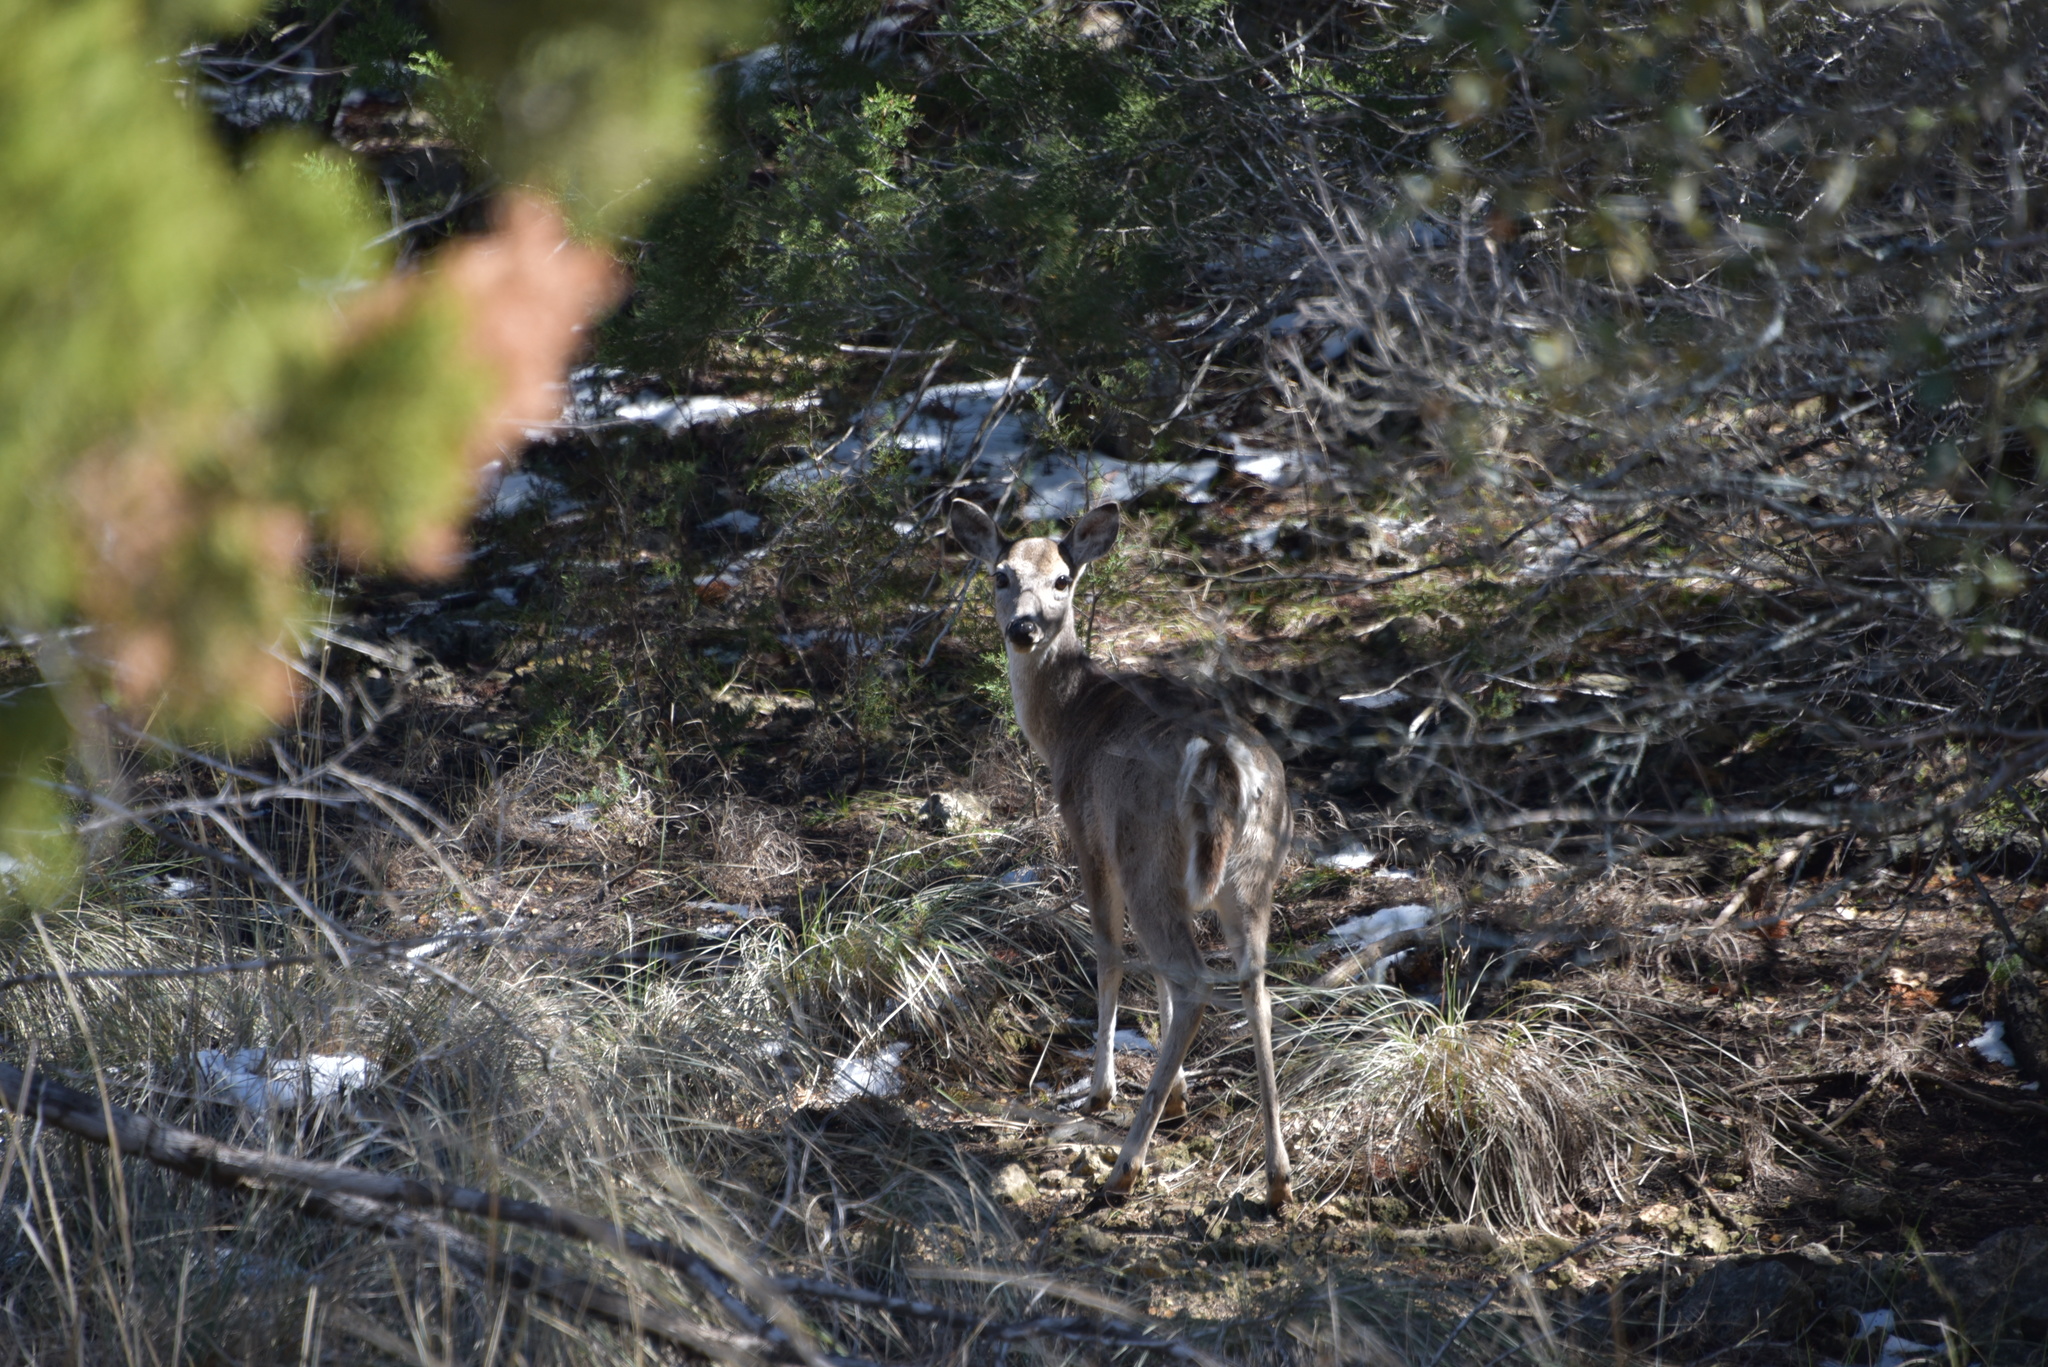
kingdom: Animalia
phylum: Chordata
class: Mammalia
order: Artiodactyla
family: Cervidae
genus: Odocoileus
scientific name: Odocoileus virginianus
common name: White-tailed deer
